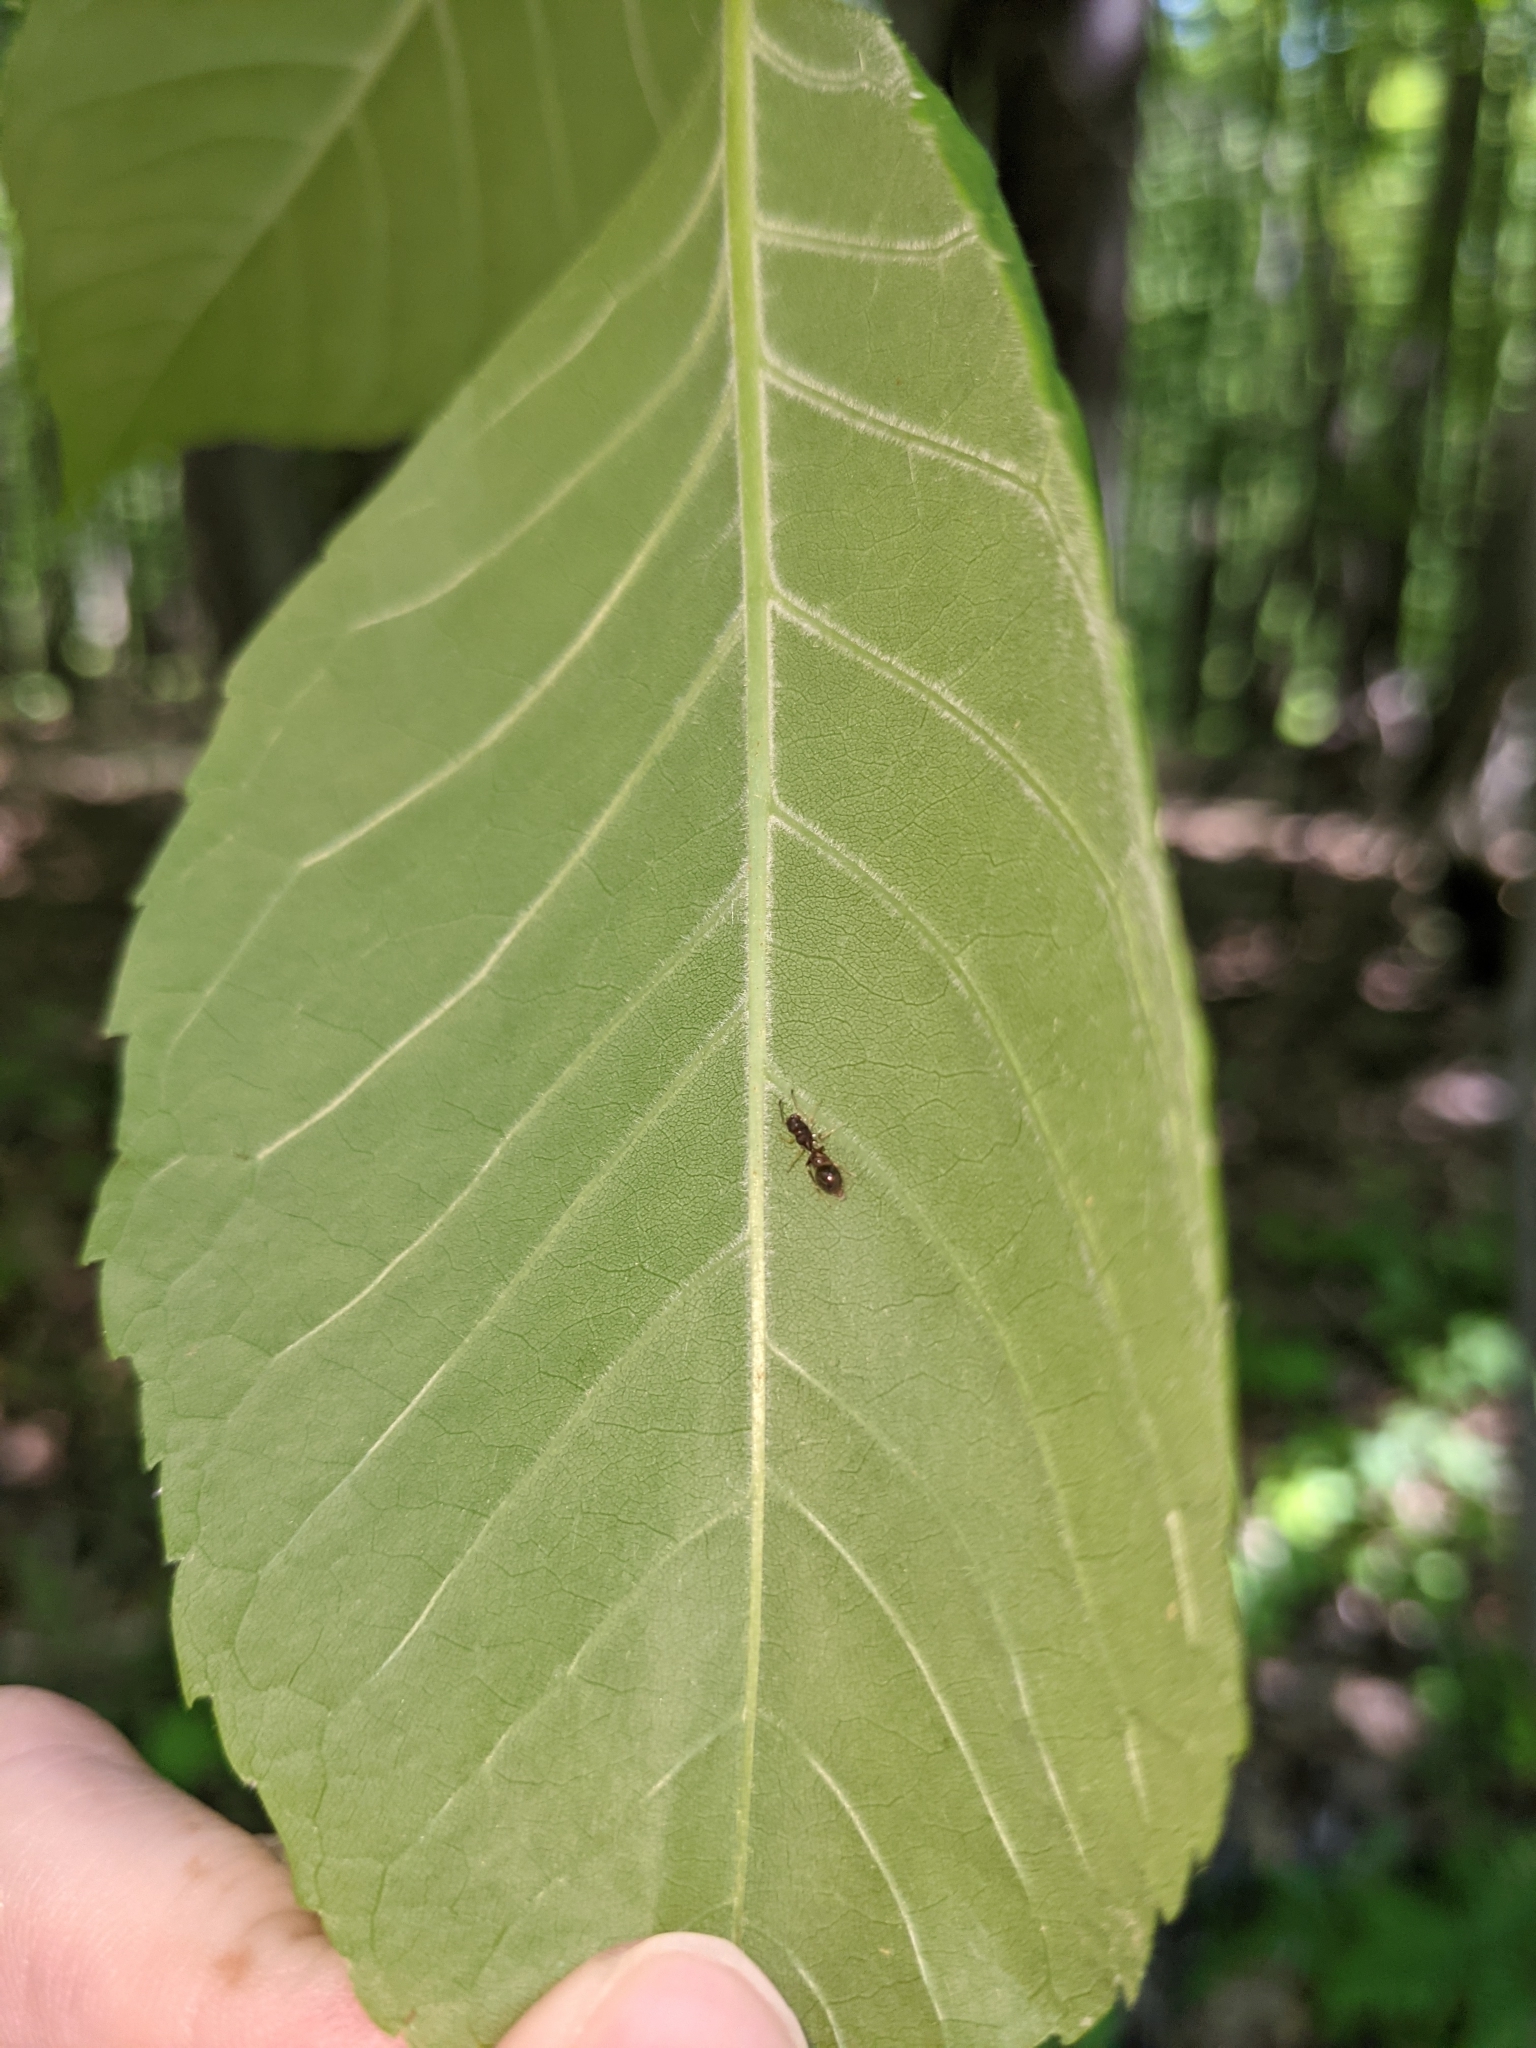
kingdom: Animalia
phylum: Arthropoda
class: Arachnida
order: Araneae
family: Salticidae
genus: Synemosyna
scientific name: Synemosyna formica
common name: Slender ant-mimic jumping spider
